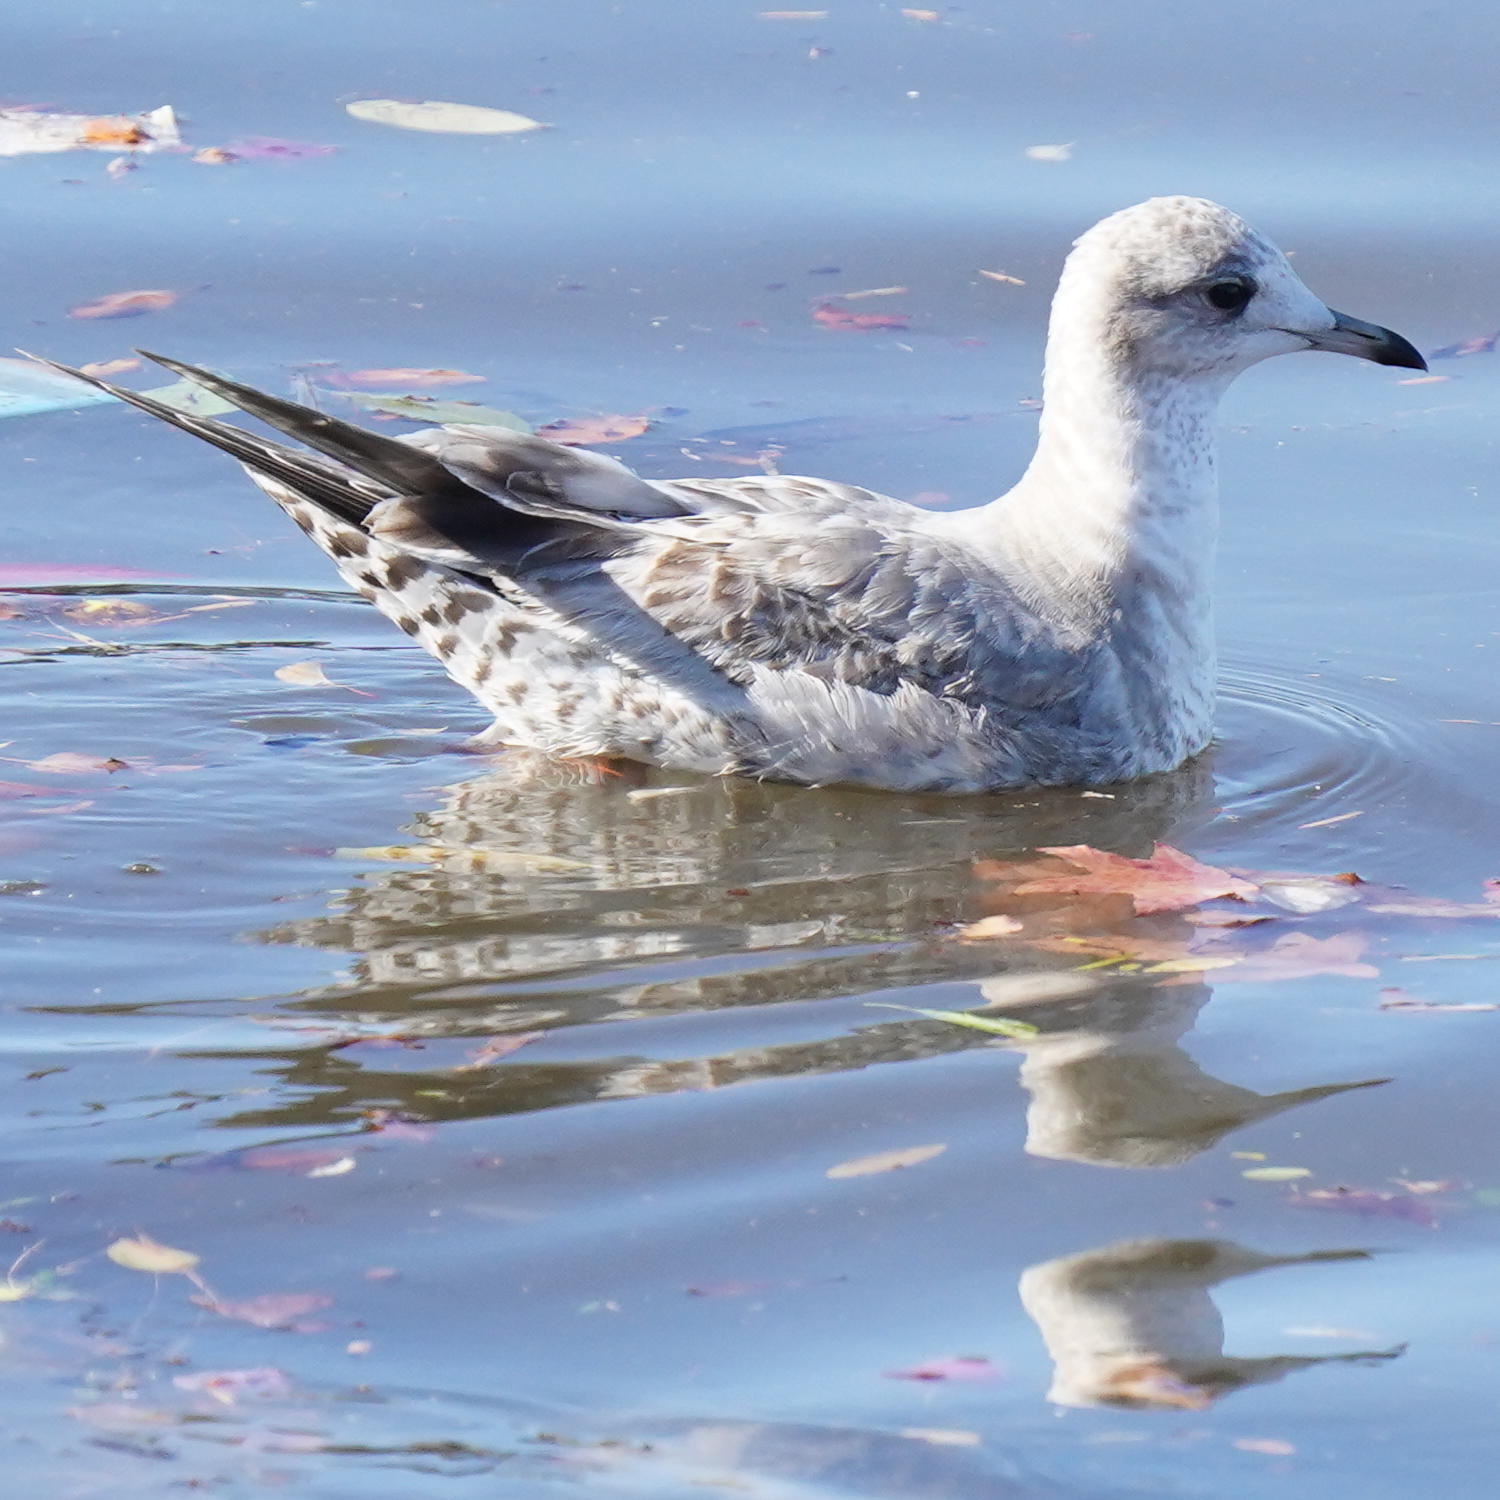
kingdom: Animalia
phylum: Chordata
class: Aves
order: Charadriiformes
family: Laridae
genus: Larus
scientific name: Larus brachyrhynchus
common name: Short-billed gull
